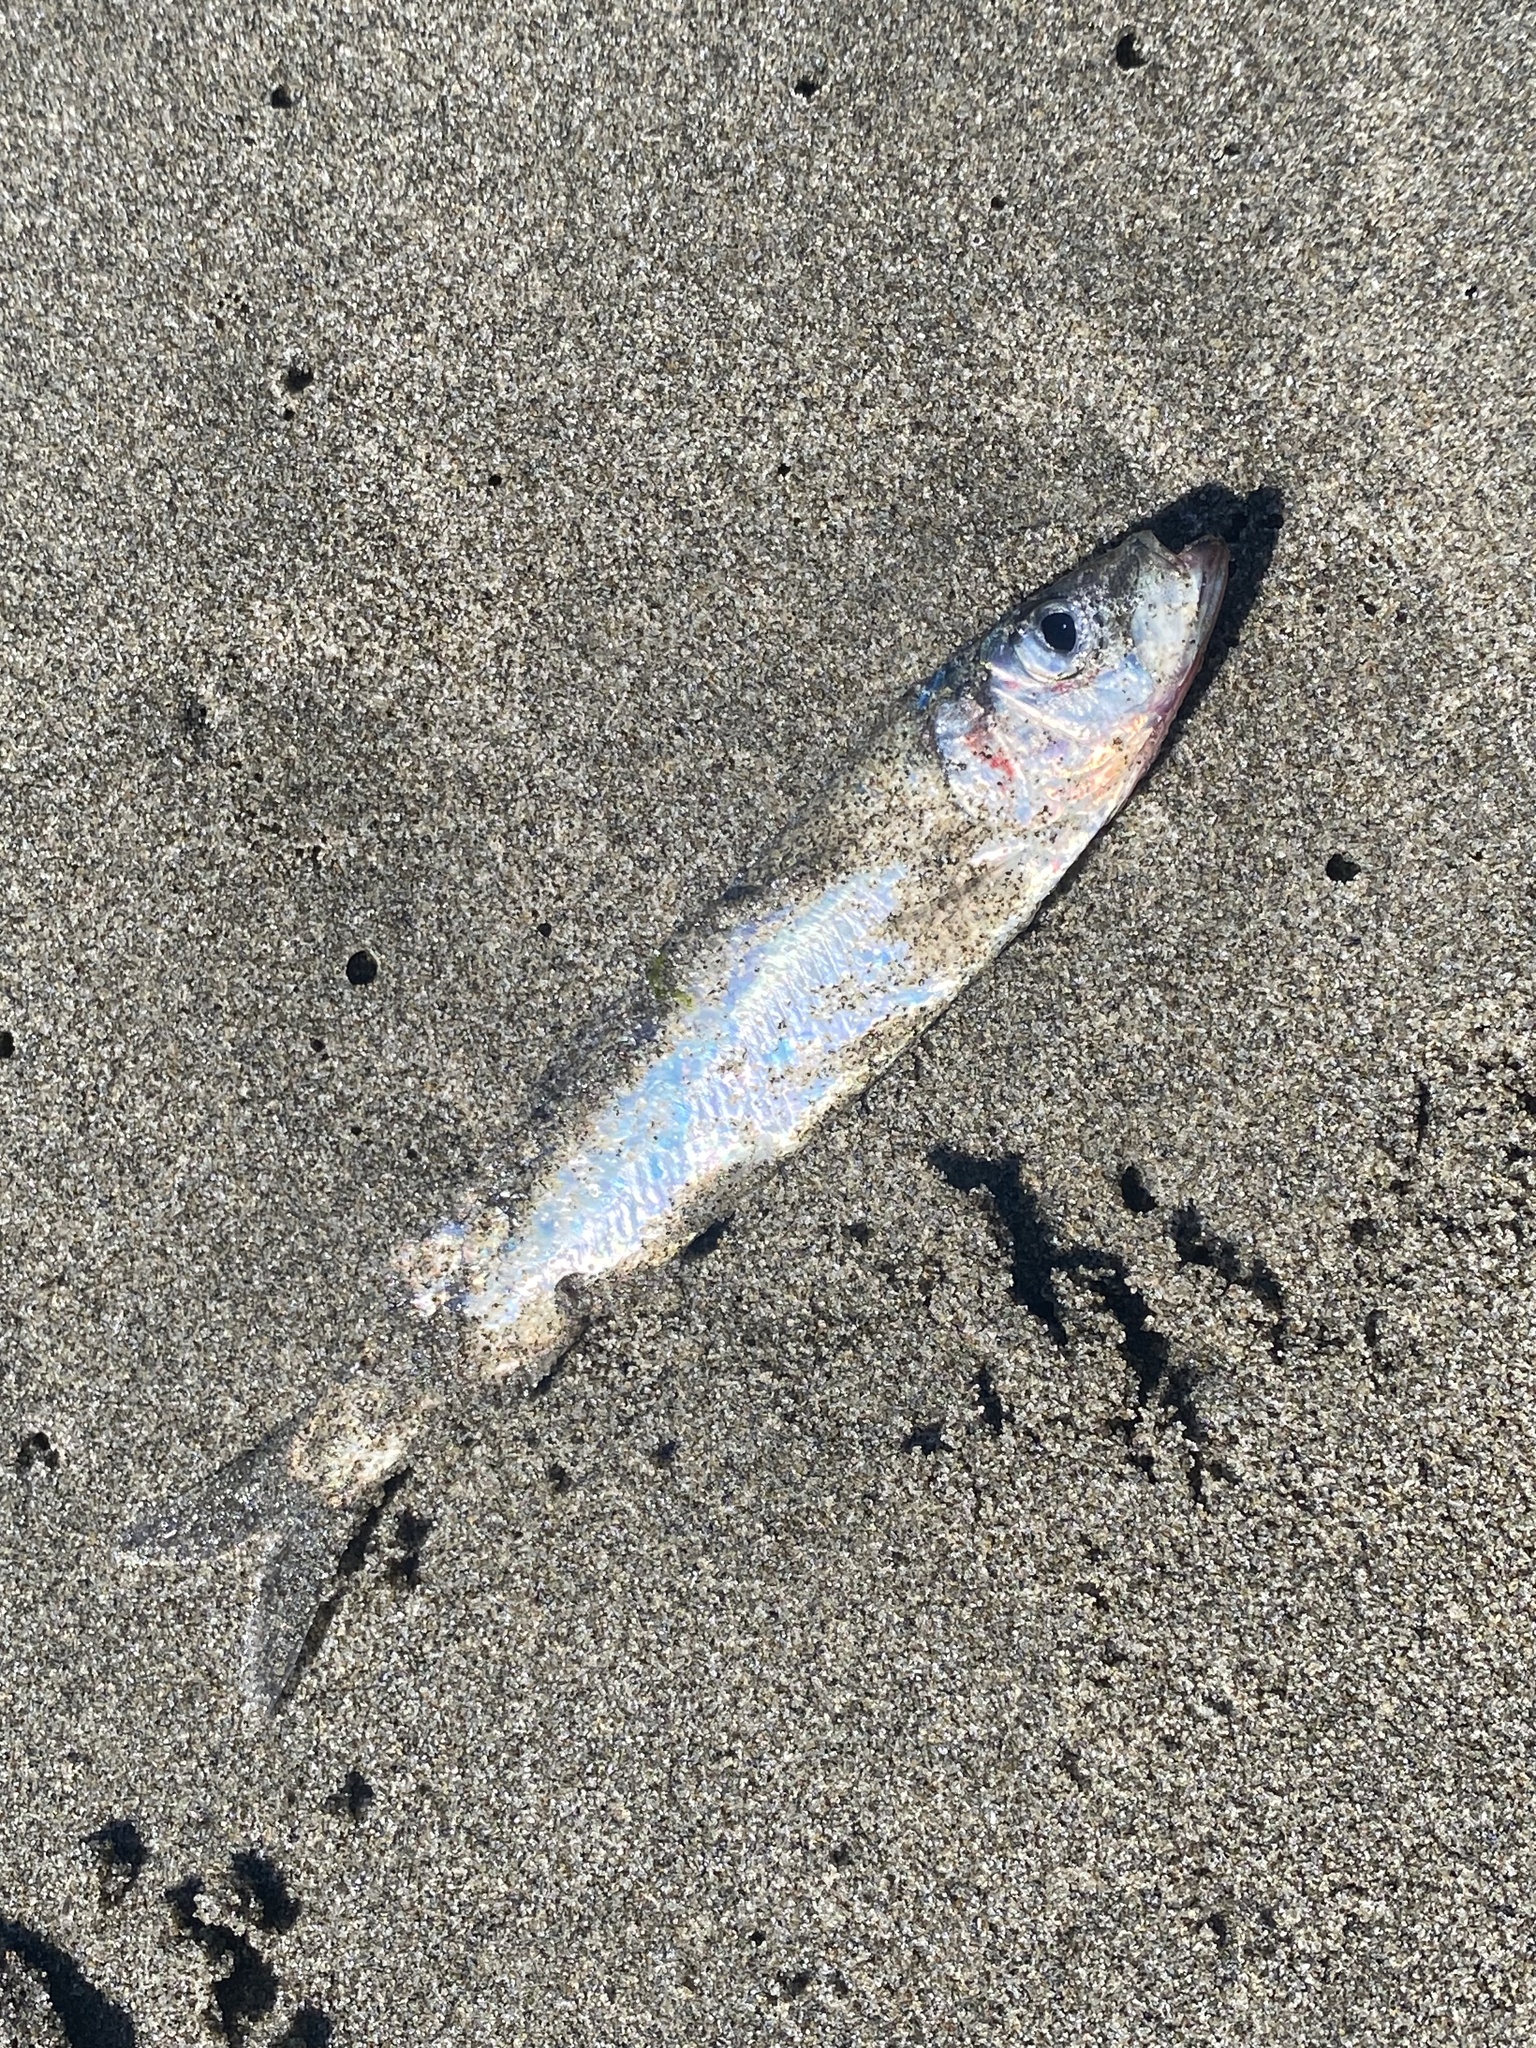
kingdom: Animalia
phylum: Chordata
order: Clupeiformes
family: Clupeidae
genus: Clupea
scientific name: Clupea pallasii
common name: Pacific herring
